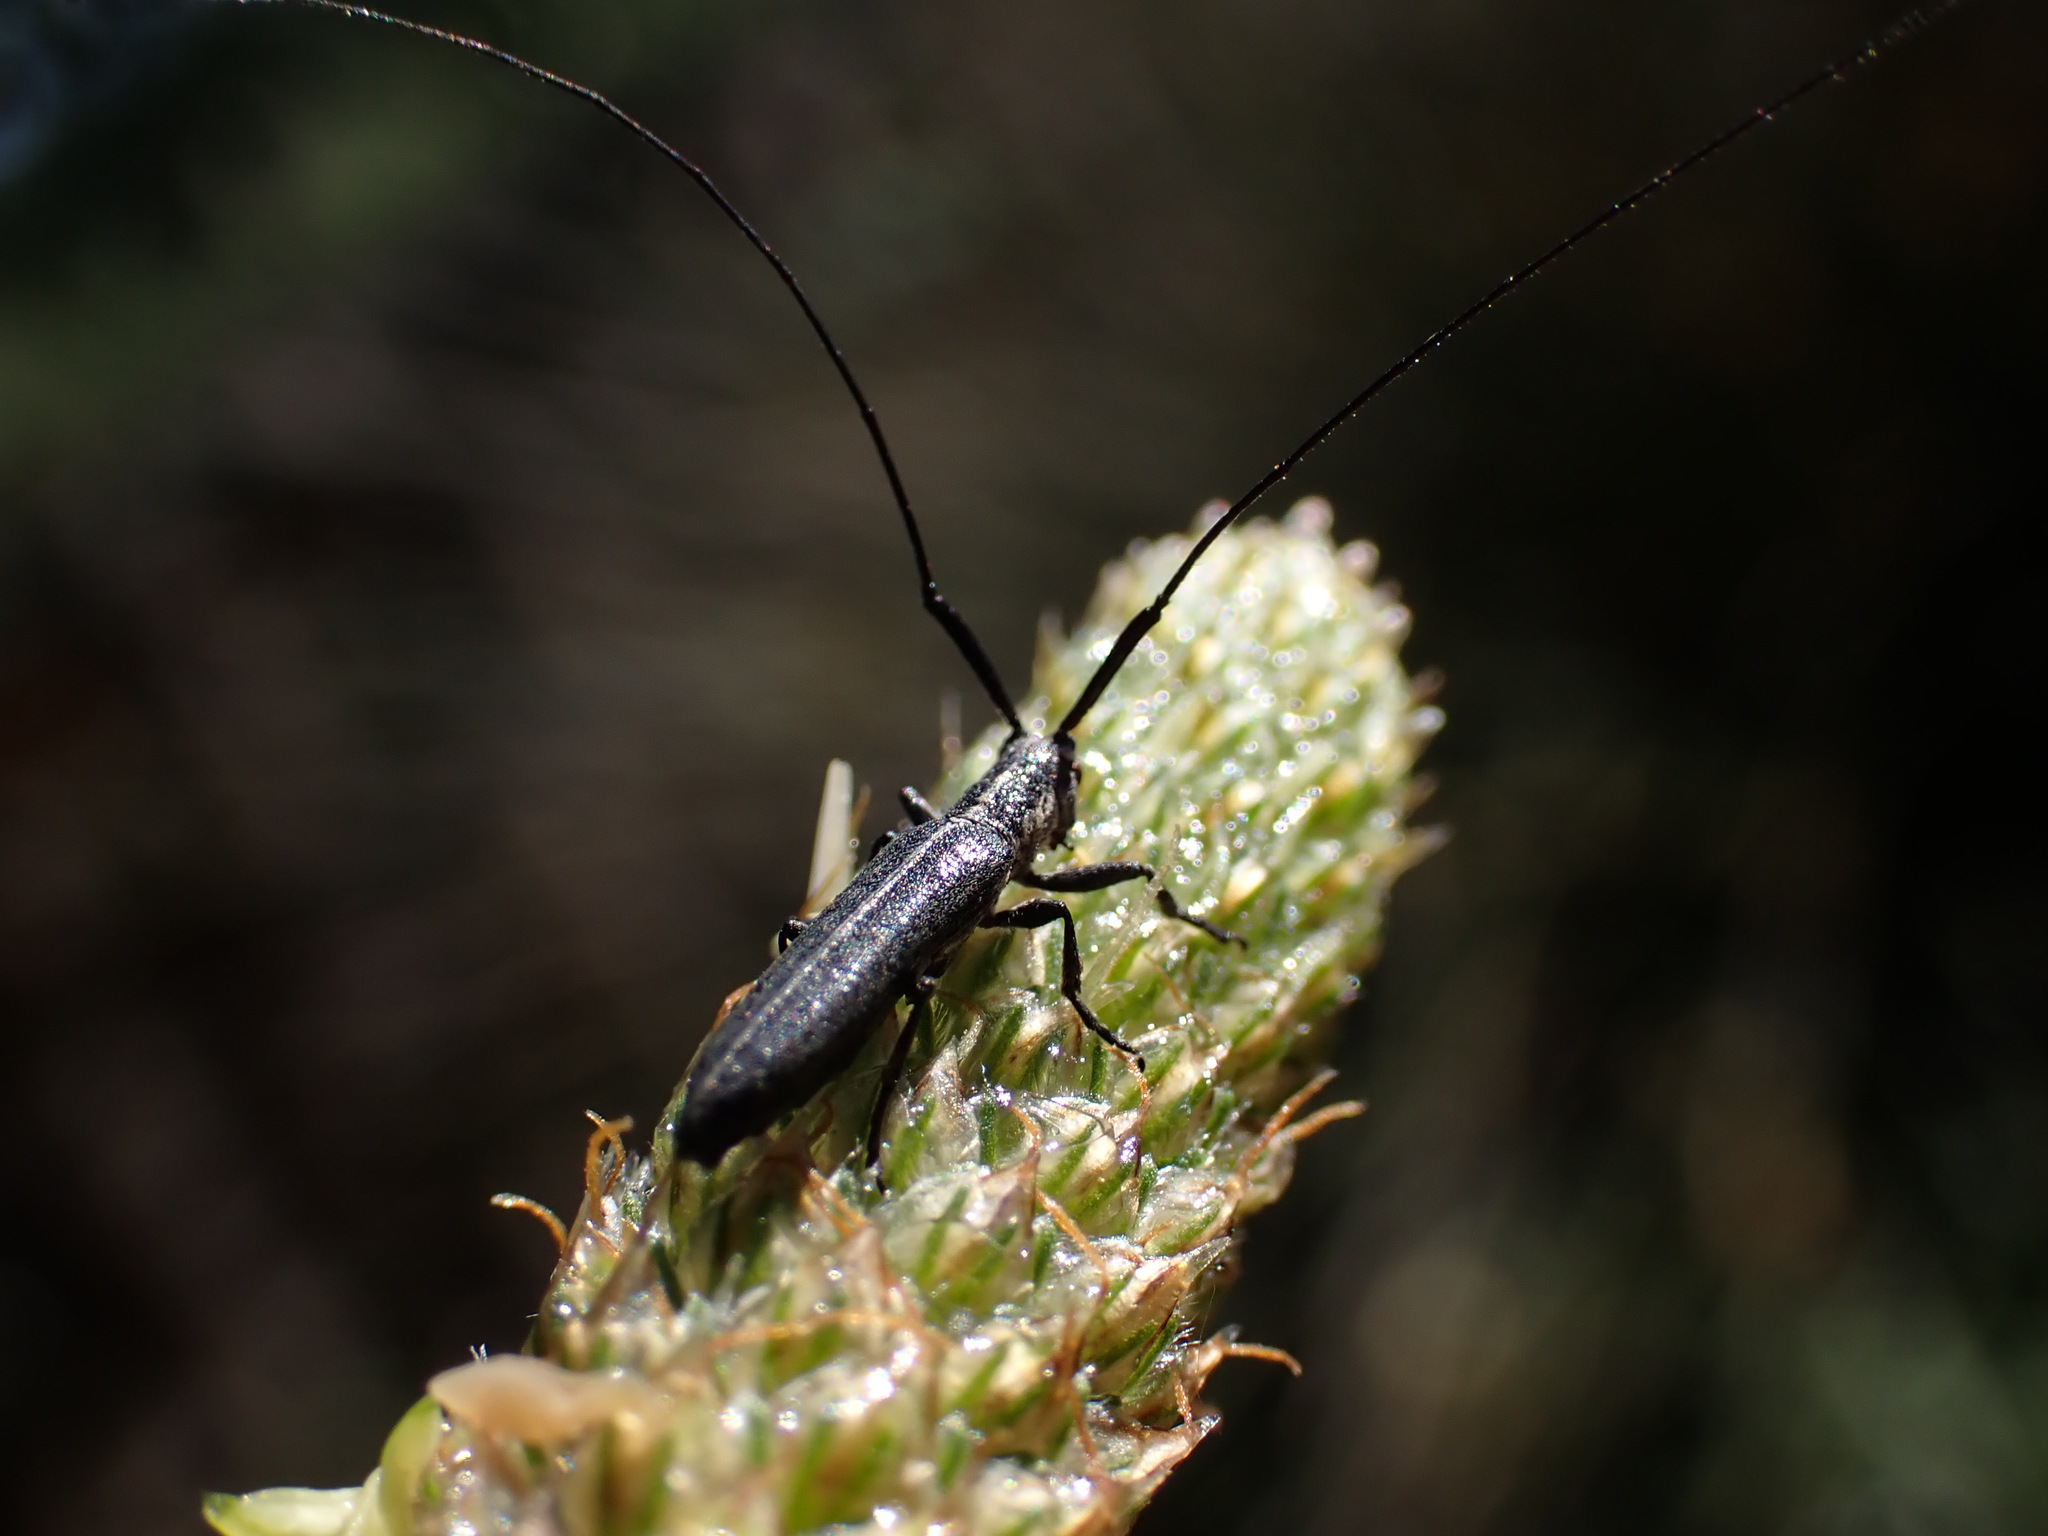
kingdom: Animalia
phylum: Arthropoda
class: Insecta
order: Coleoptera
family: Cerambycidae
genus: Calamobius
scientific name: Calamobius filum
